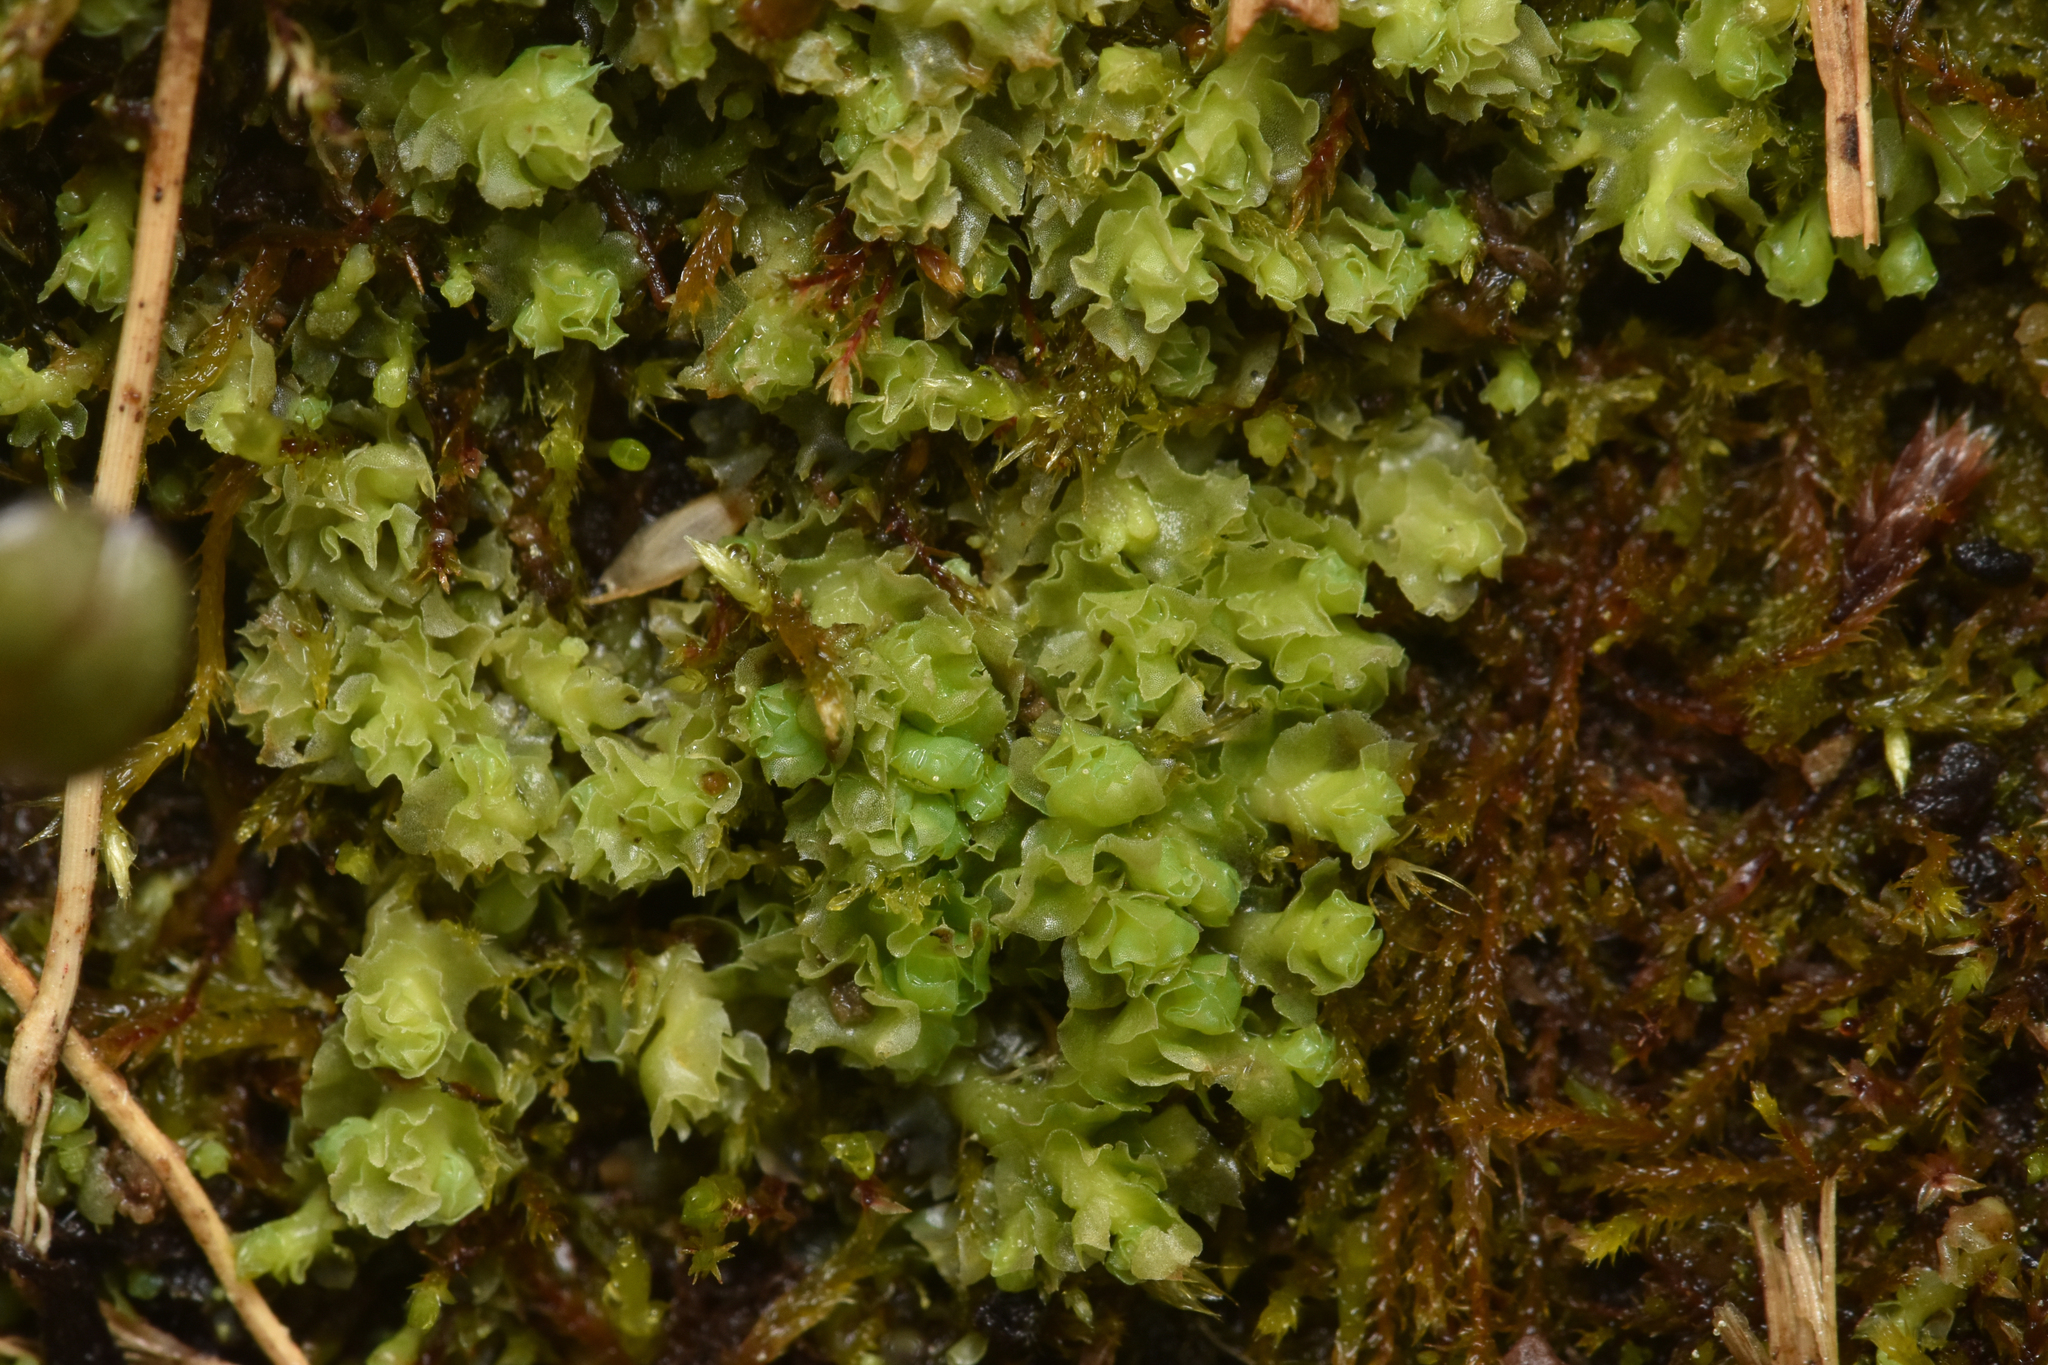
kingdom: Plantae
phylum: Marchantiophyta
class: Jungermanniopsida
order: Jungermanniales
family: Scapaniaceae
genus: Schistochilopsis
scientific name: Schistochilopsis incisa
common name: Jagged notchwort
